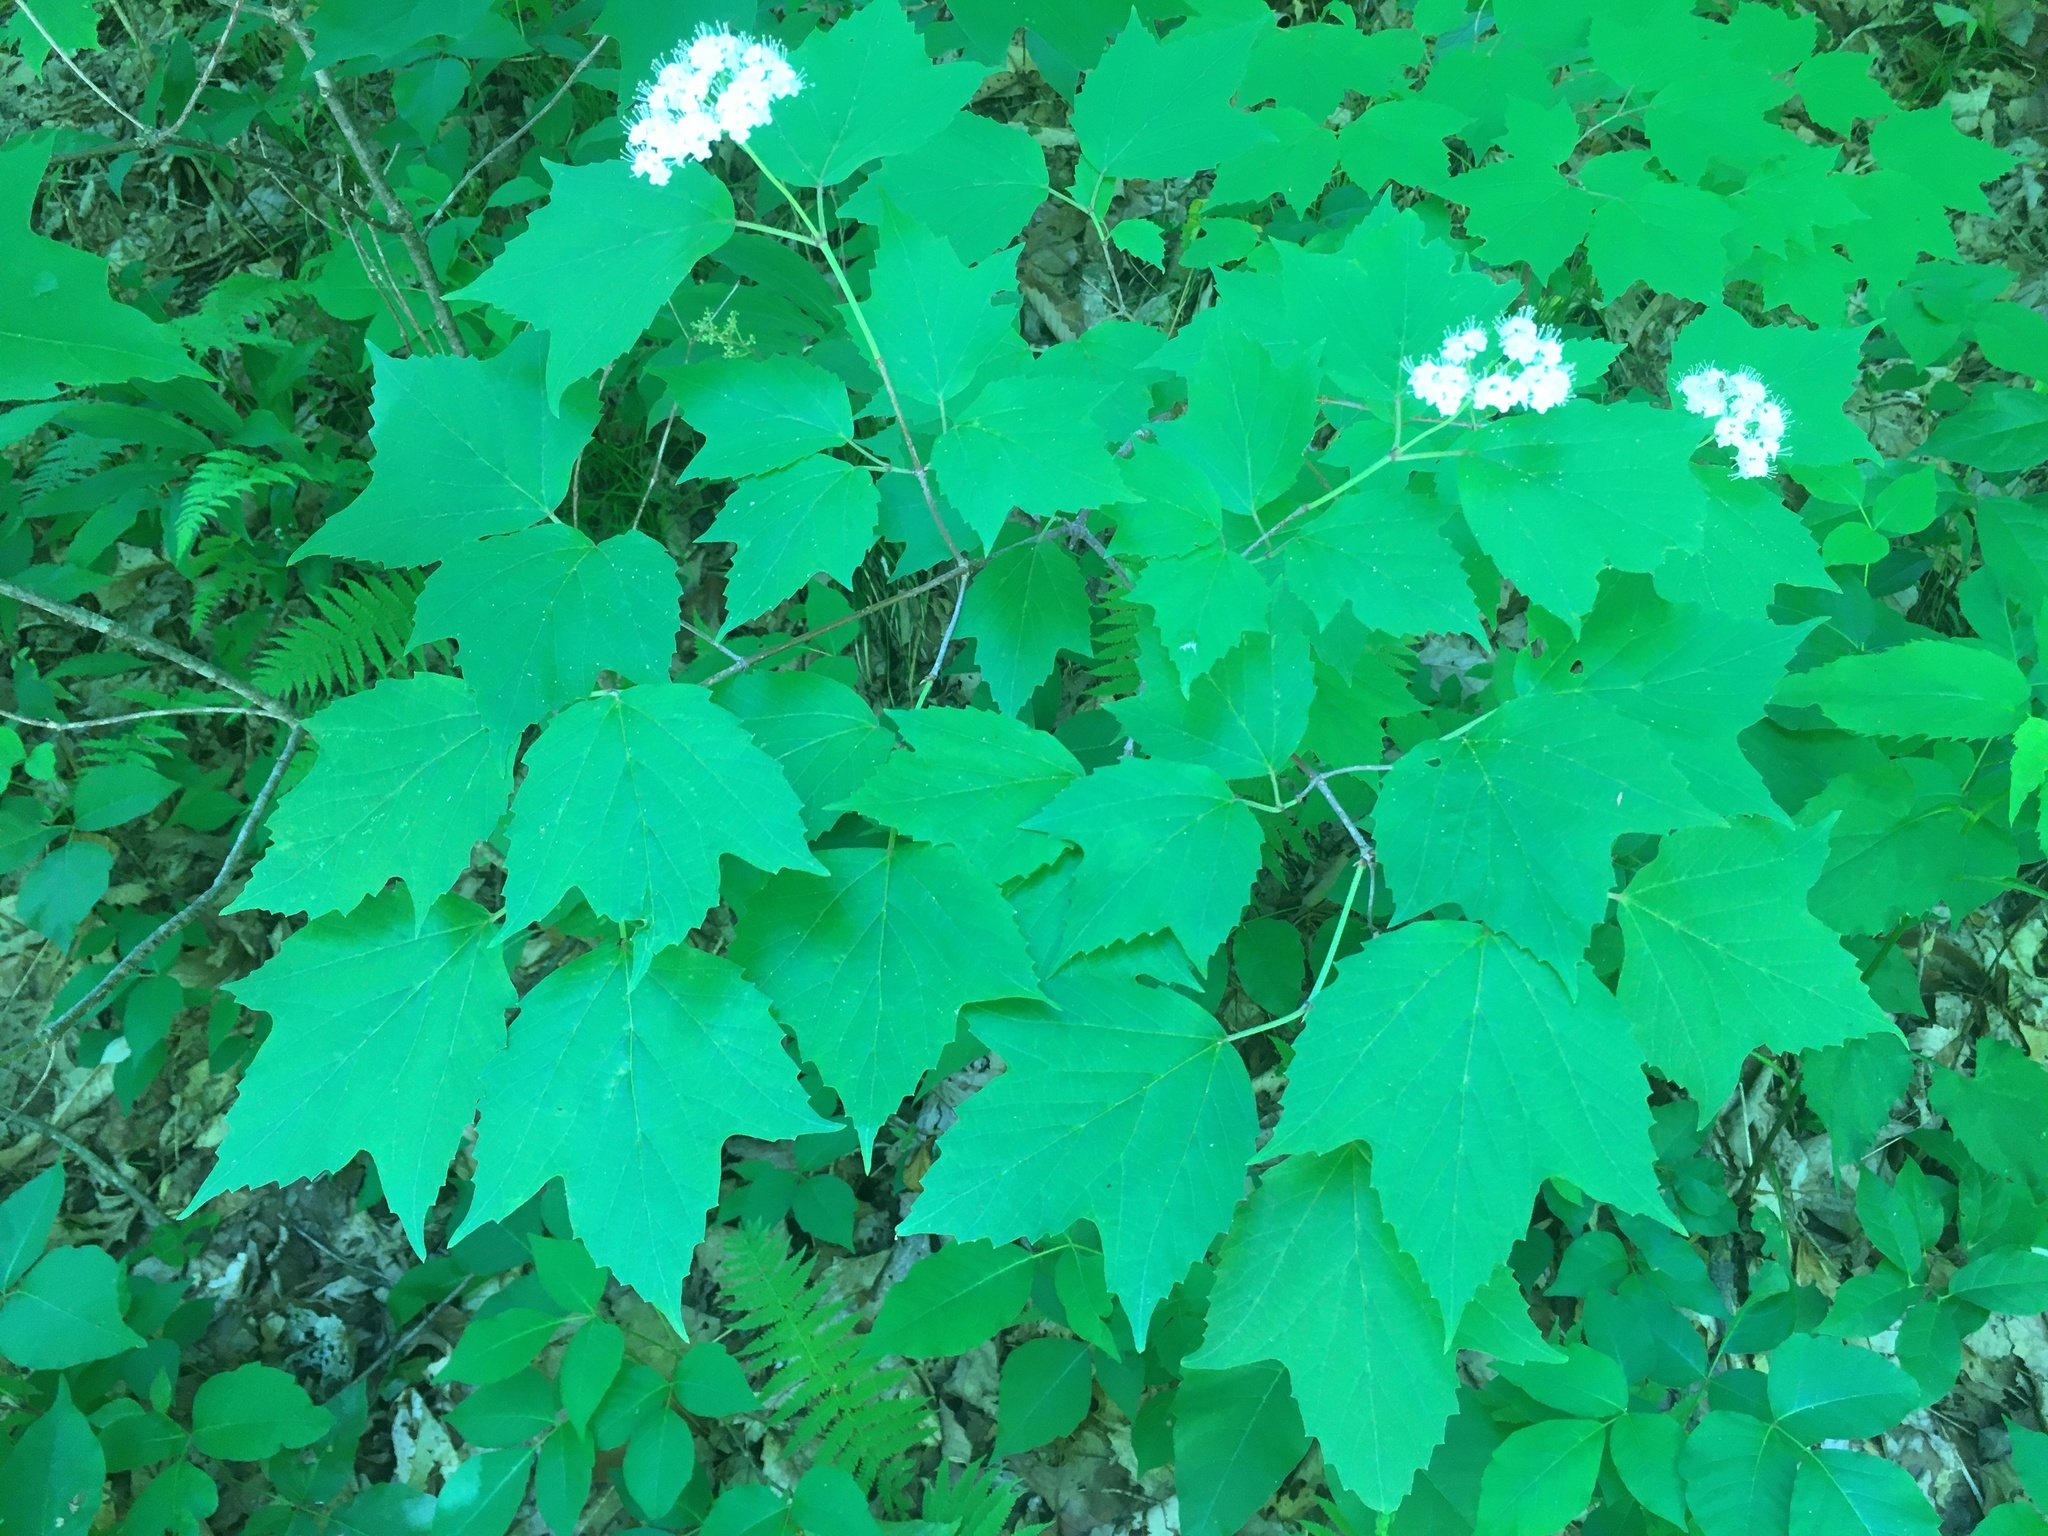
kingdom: Plantae
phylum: Tracheophyta
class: Magnoliopsida
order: Dipsacales
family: Viburnaceae
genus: Viburnum
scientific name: Viburnum acerifolium
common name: Dockmackie
